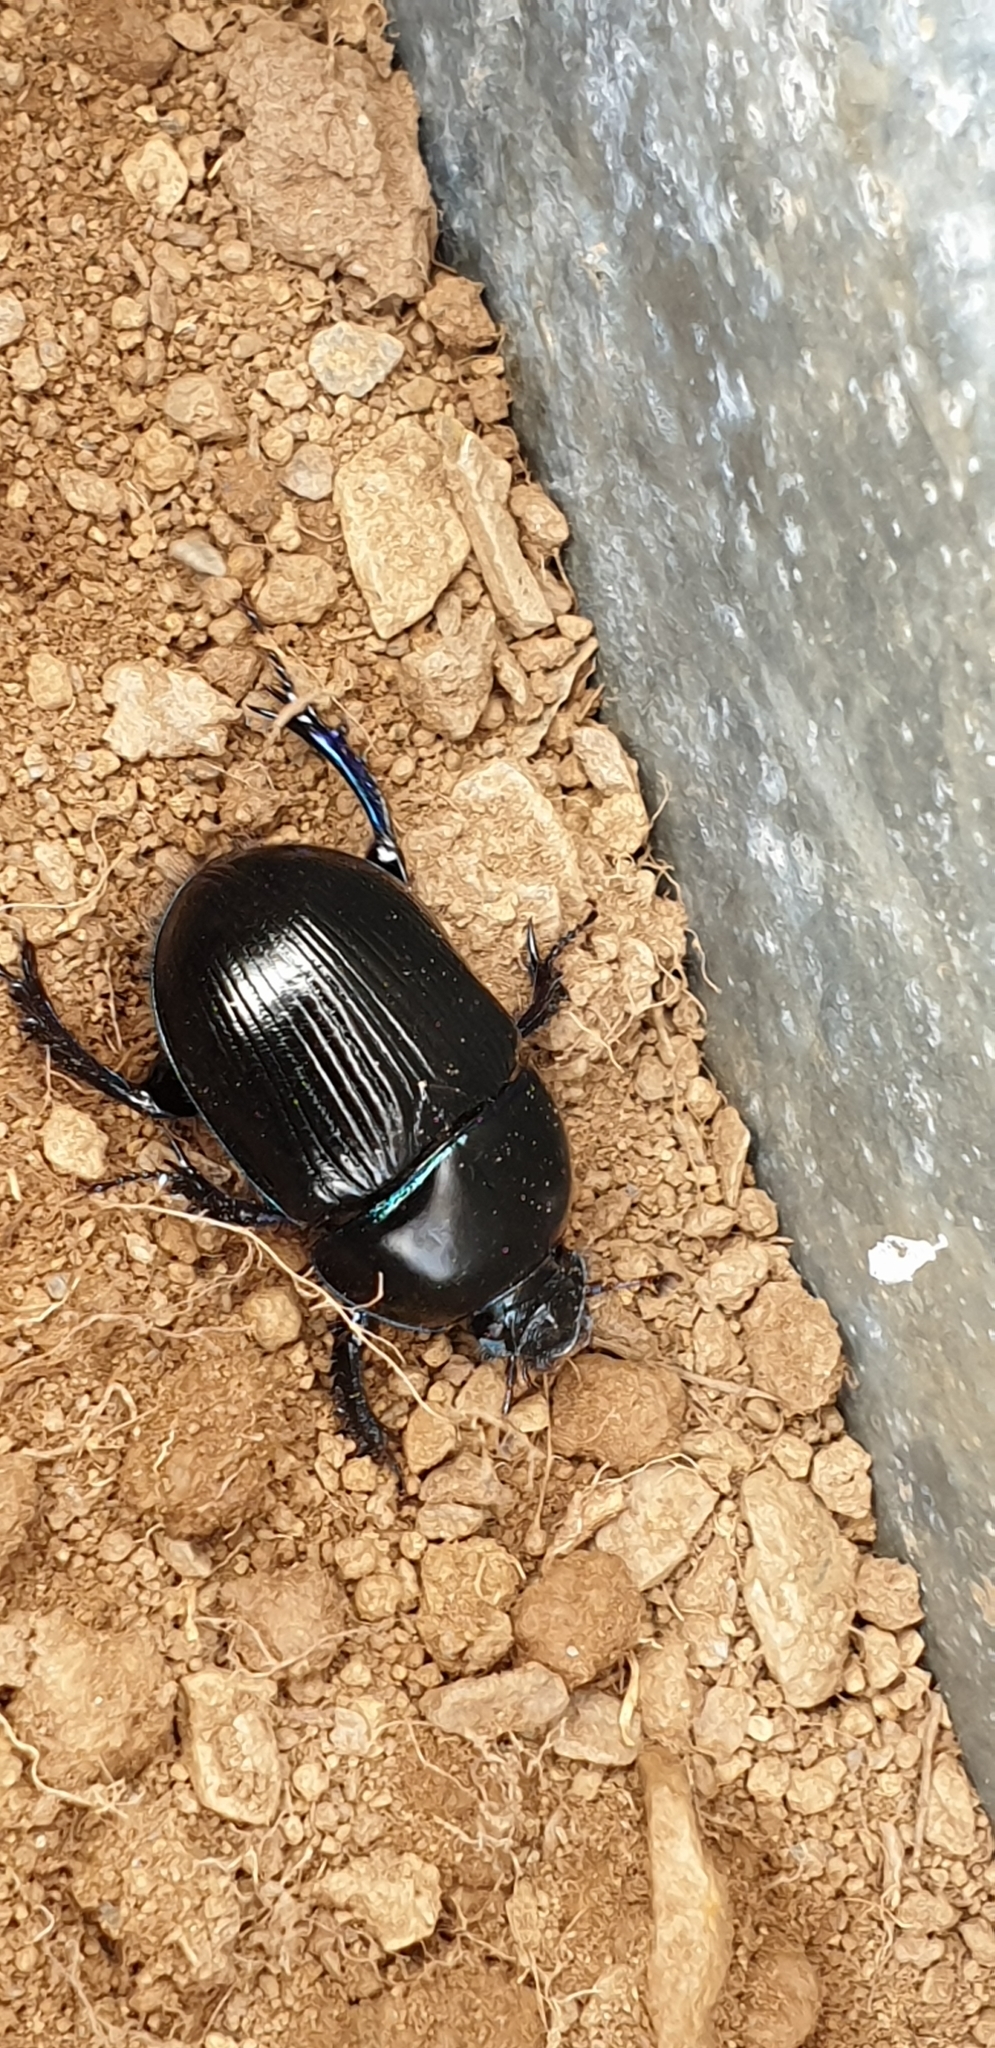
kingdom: Animalia
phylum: Arthropoda
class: Insecta
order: Coleoptera
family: Geotrupidae
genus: Anoplotrupes
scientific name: Anoplotrupes stercorosus
